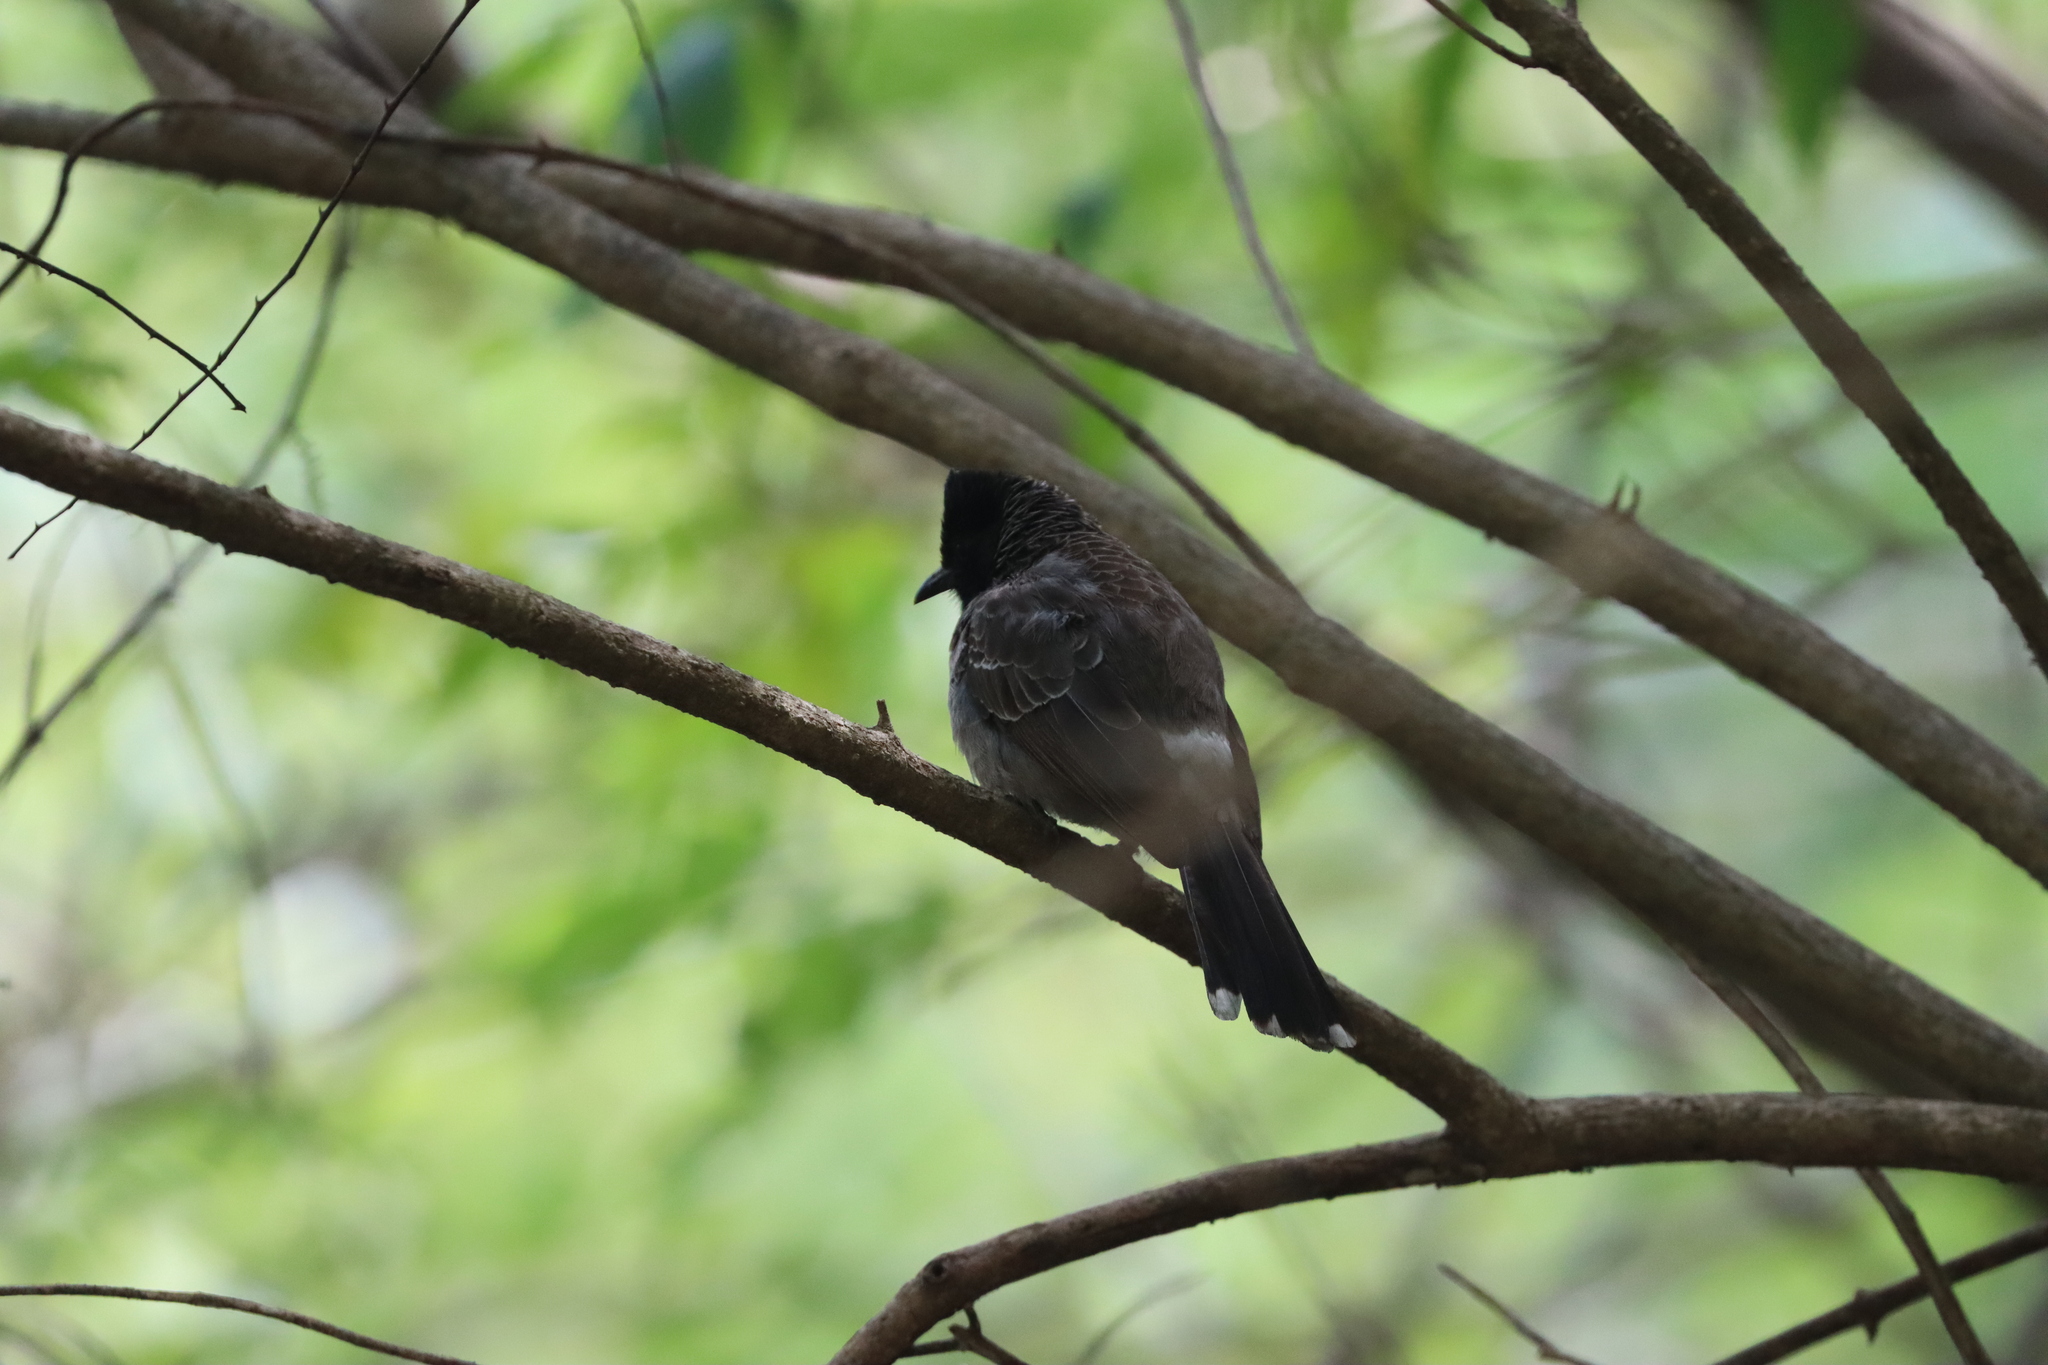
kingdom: Animalia
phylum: Chordata
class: Aves
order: Passeriformes
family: Pycnonotidae
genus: Pycnonotus
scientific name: Pycnonotus cafer
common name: Red-vented bulbul
